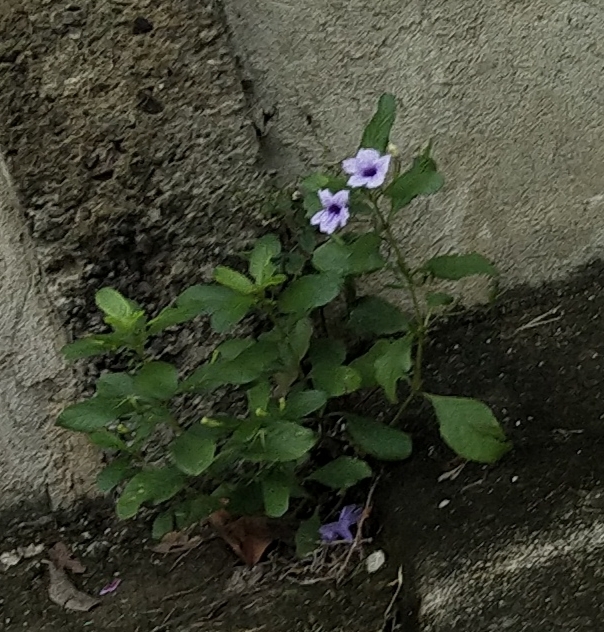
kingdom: Plantae
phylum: Tracheophyta
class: Magnoliopsida
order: Lamiales
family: Acanthaceae
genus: Ruellia
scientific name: Ruellia tuberosa
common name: Devil's bit
